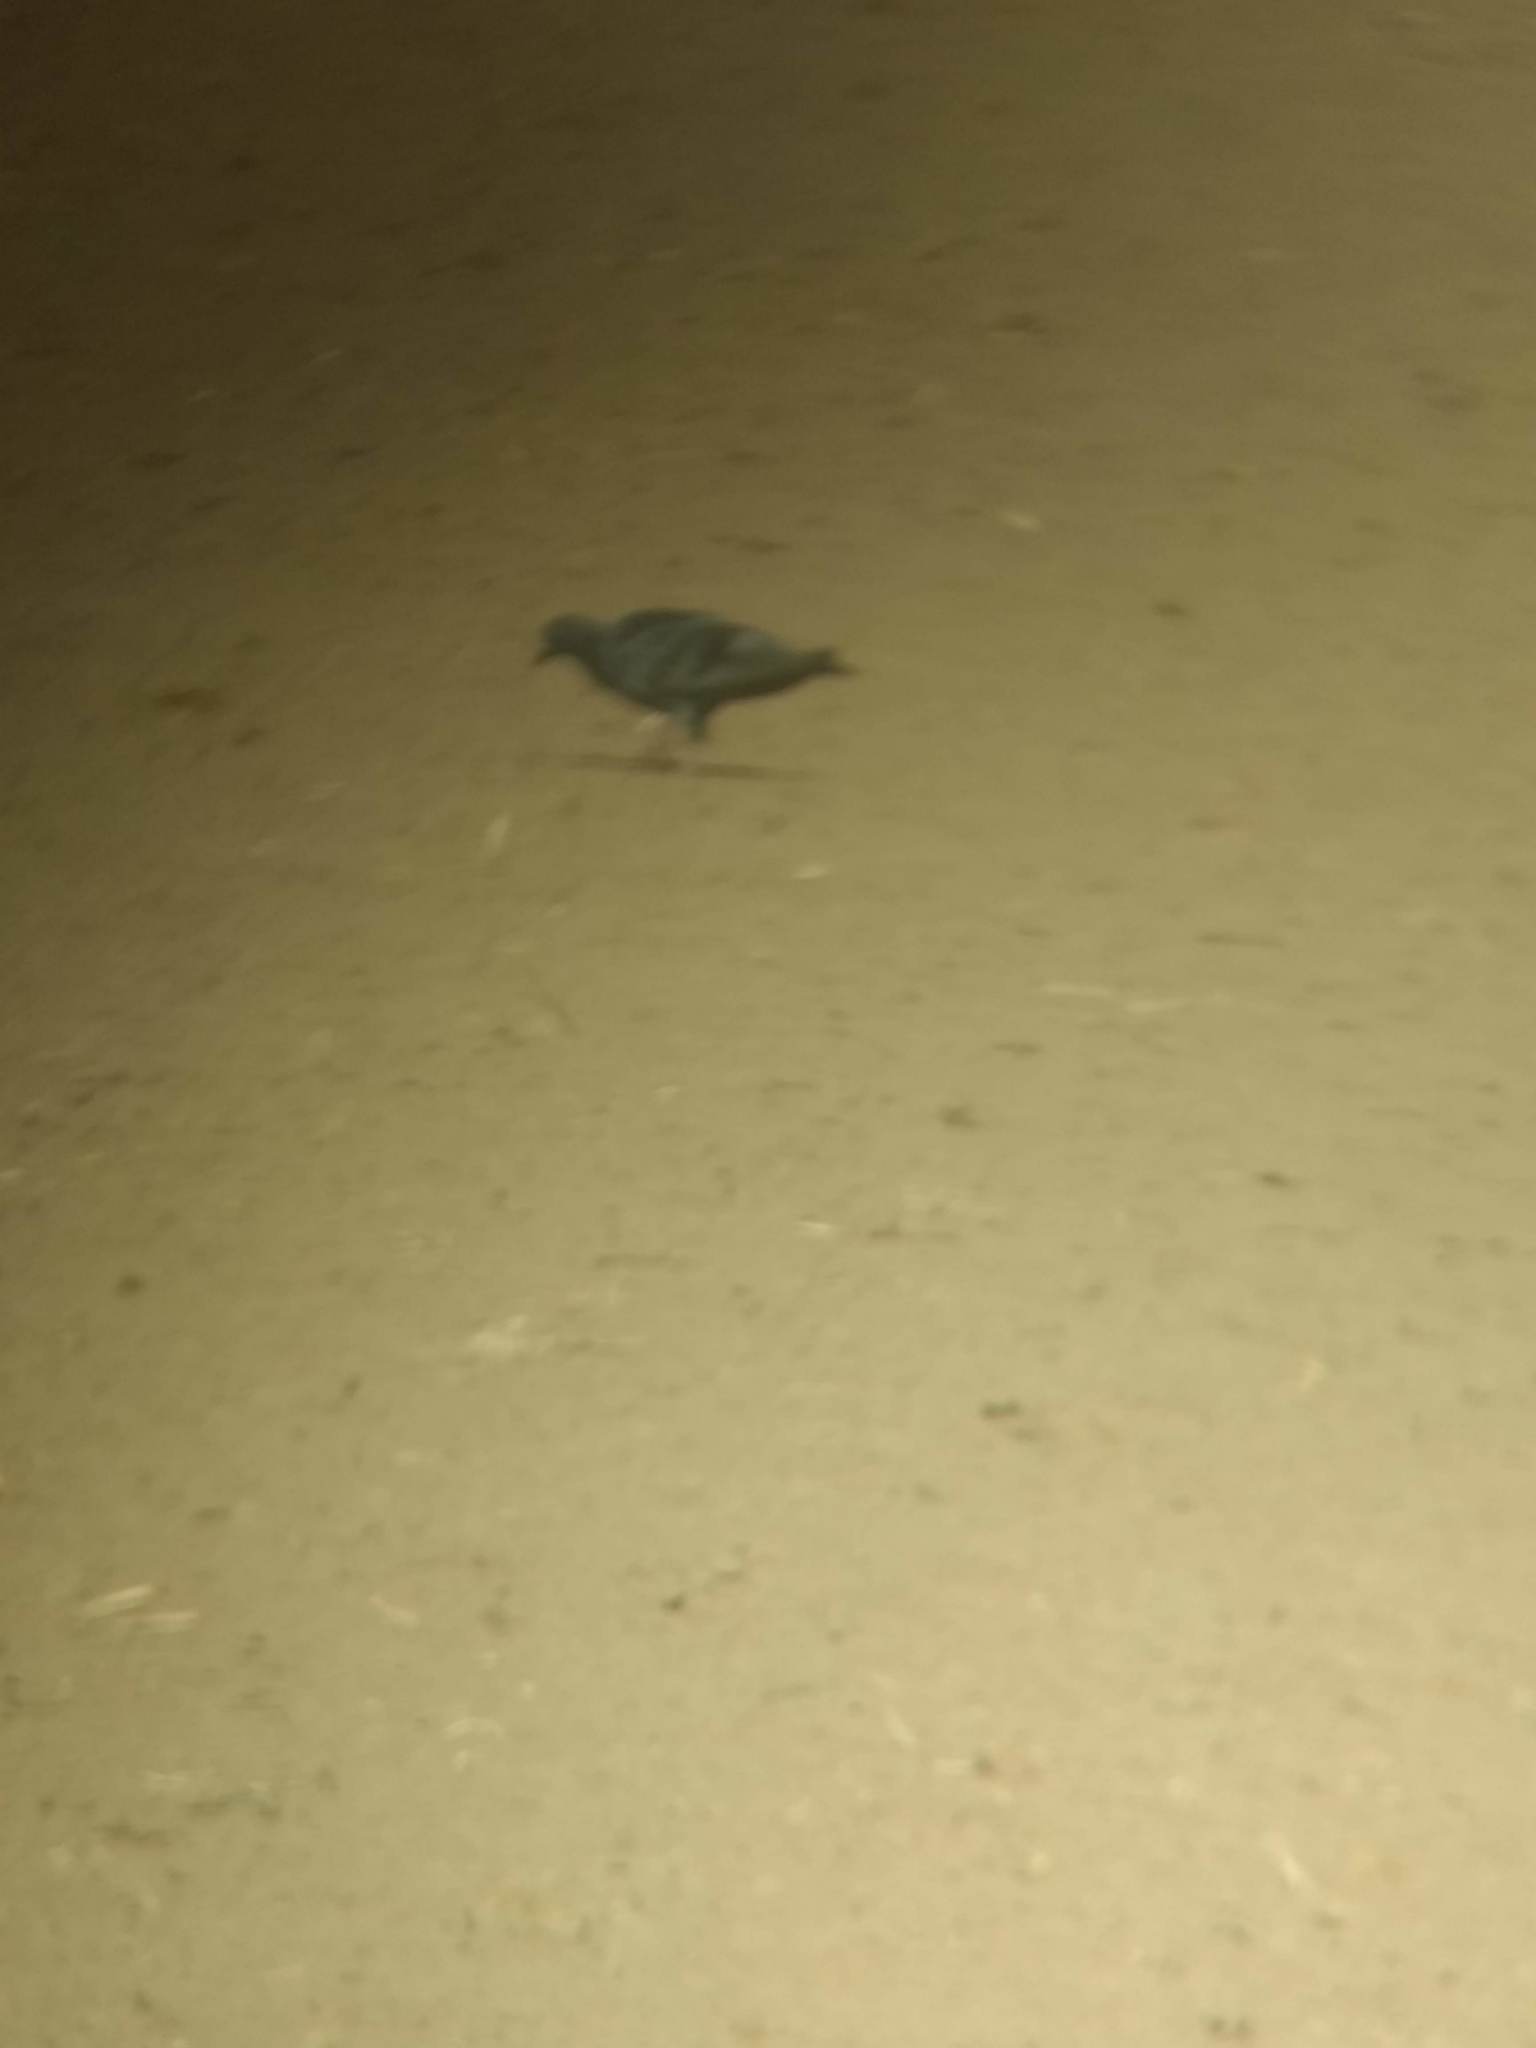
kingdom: Animalia
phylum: Chordata
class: Aves
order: Columbiformes
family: Columbidae
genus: Columba
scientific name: Columba livia
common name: Rock pigeon
